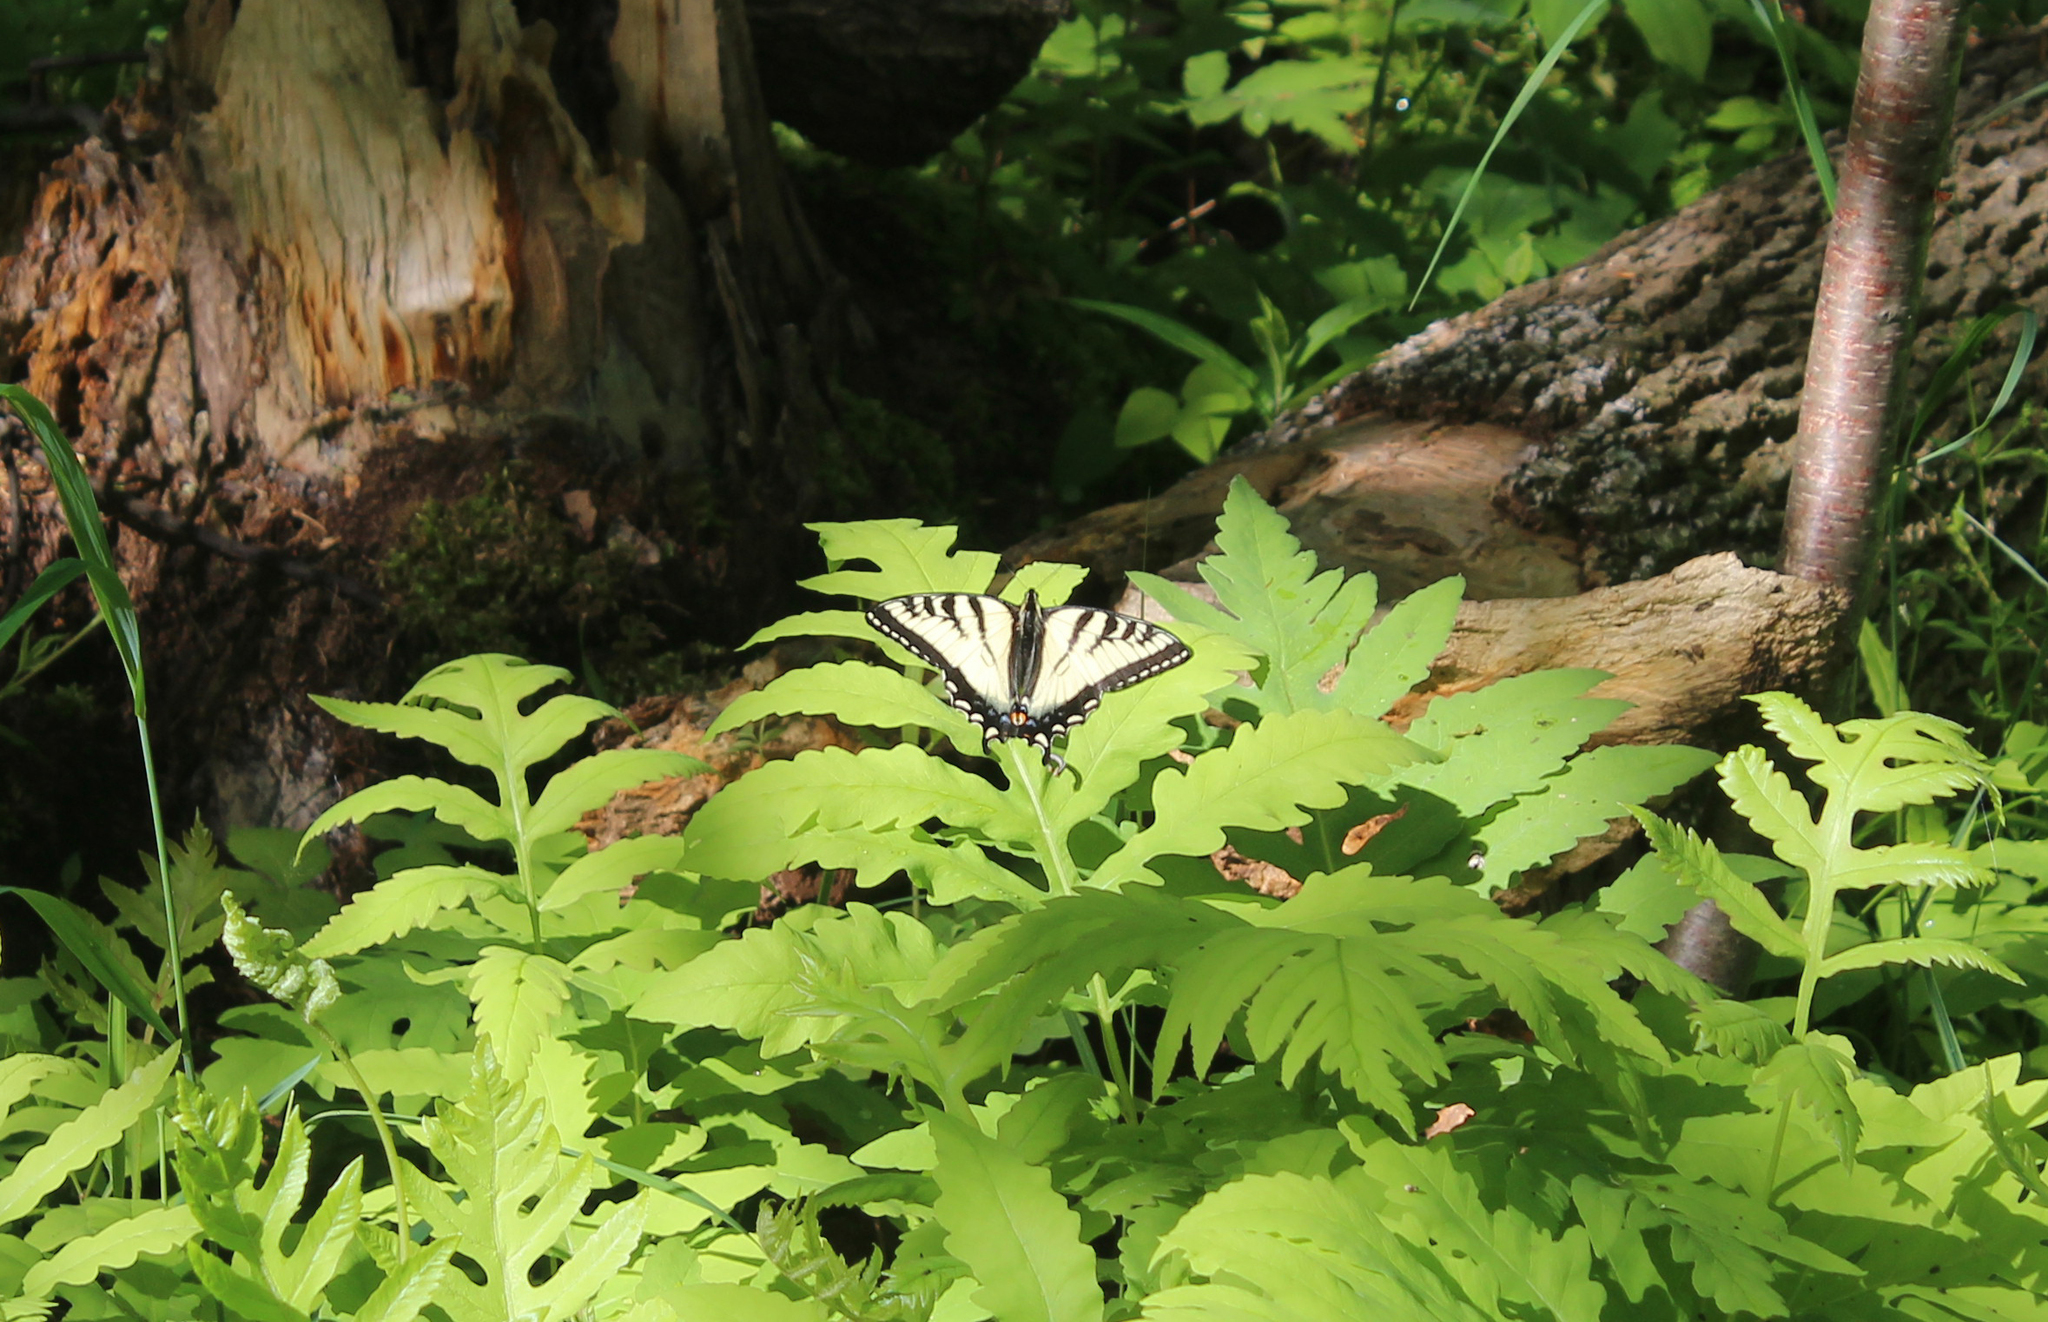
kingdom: Animalia
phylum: Arthropoda
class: Insecta
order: Lepidoptera
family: Papilionidae
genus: Papilio
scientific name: Papilio canadensis
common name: Canadian tiger swallowtail
